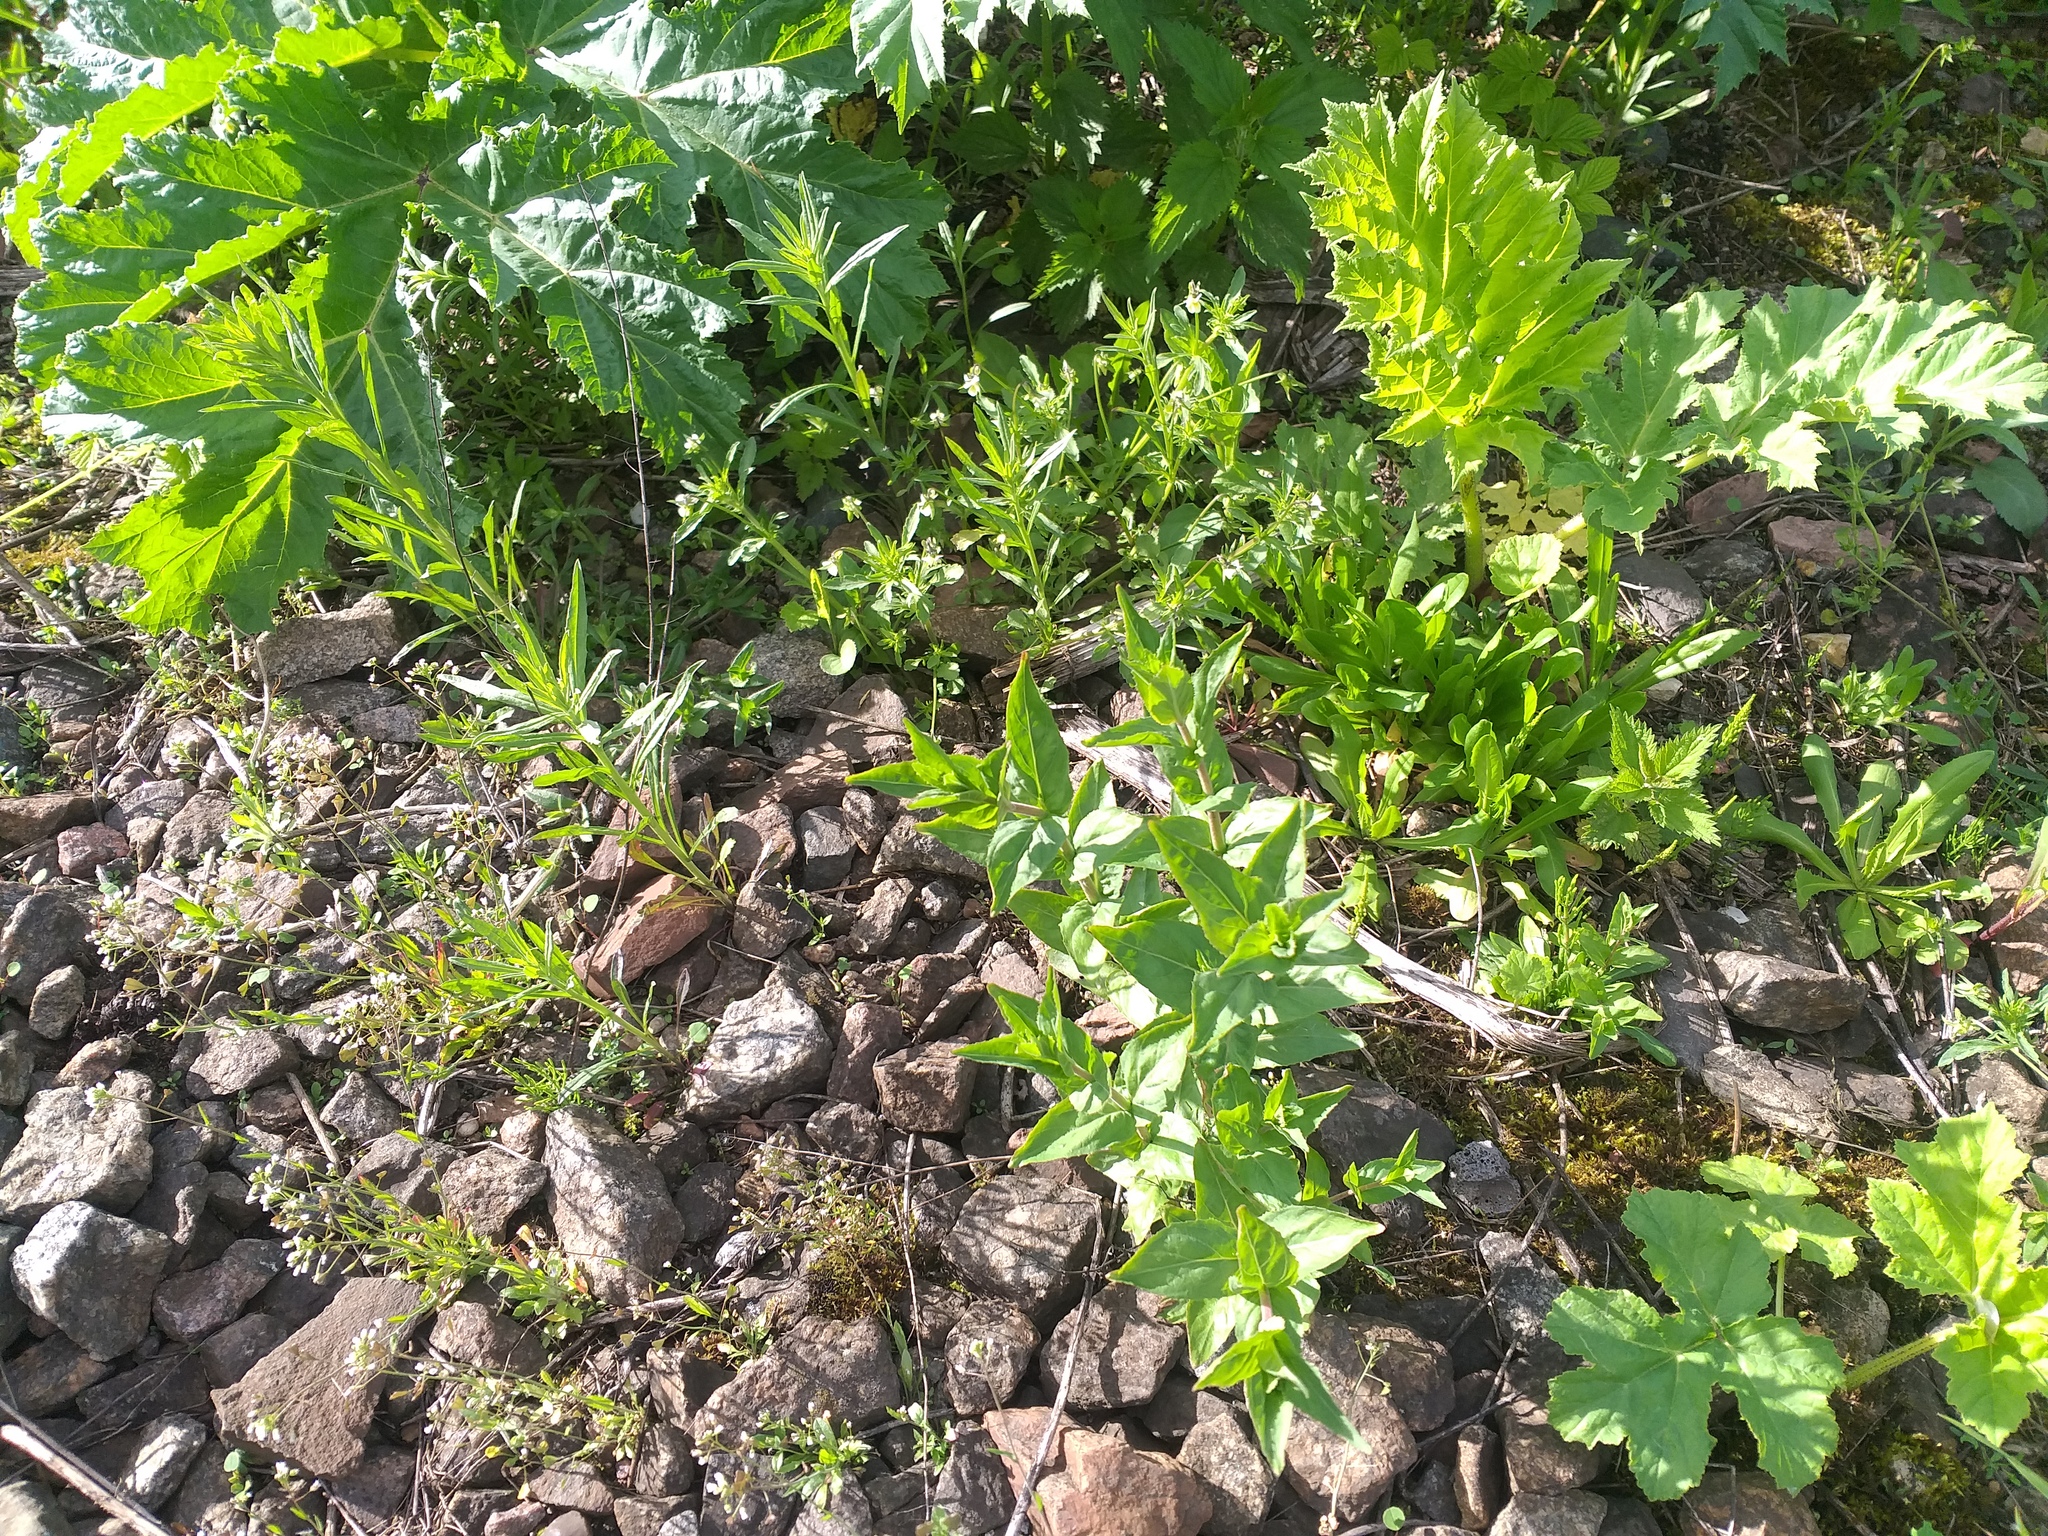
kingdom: Plantae
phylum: Tracheophyta
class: Magnoliopsida
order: Myrtales
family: Onagraceae
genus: Epilobium
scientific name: Epilobium montanum
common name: Broad-leaved willowherb
